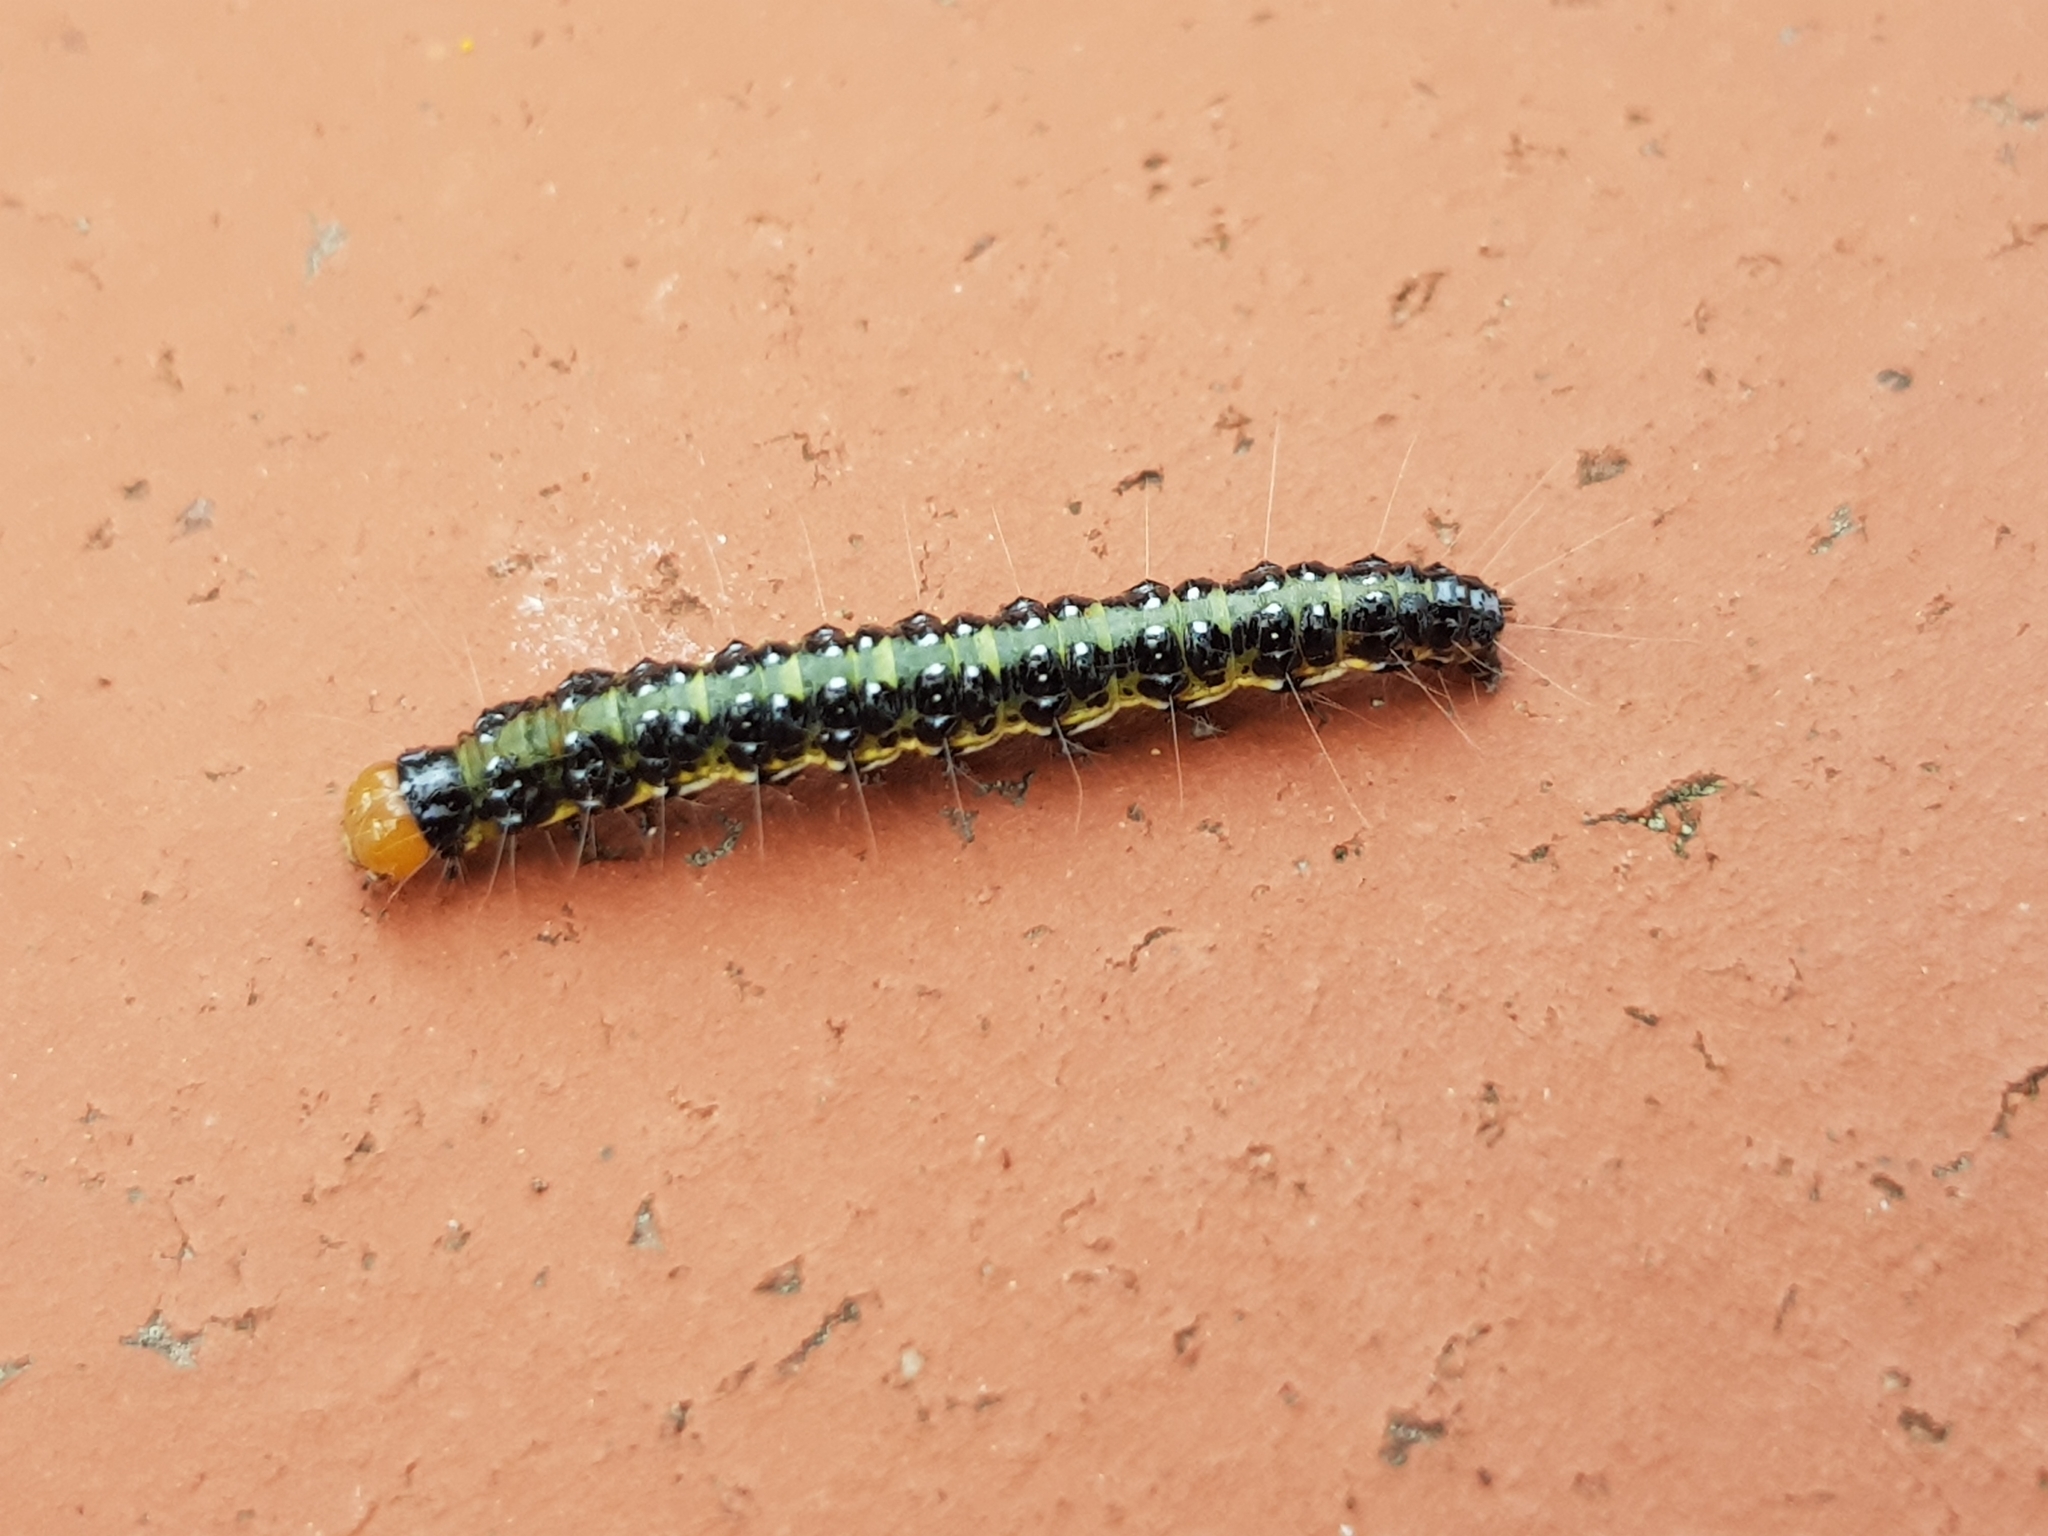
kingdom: Animalia
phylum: Arthropoda
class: Insecta
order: Lepidoptera
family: Crambidae
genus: Uresiphita
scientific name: Uresiphita
